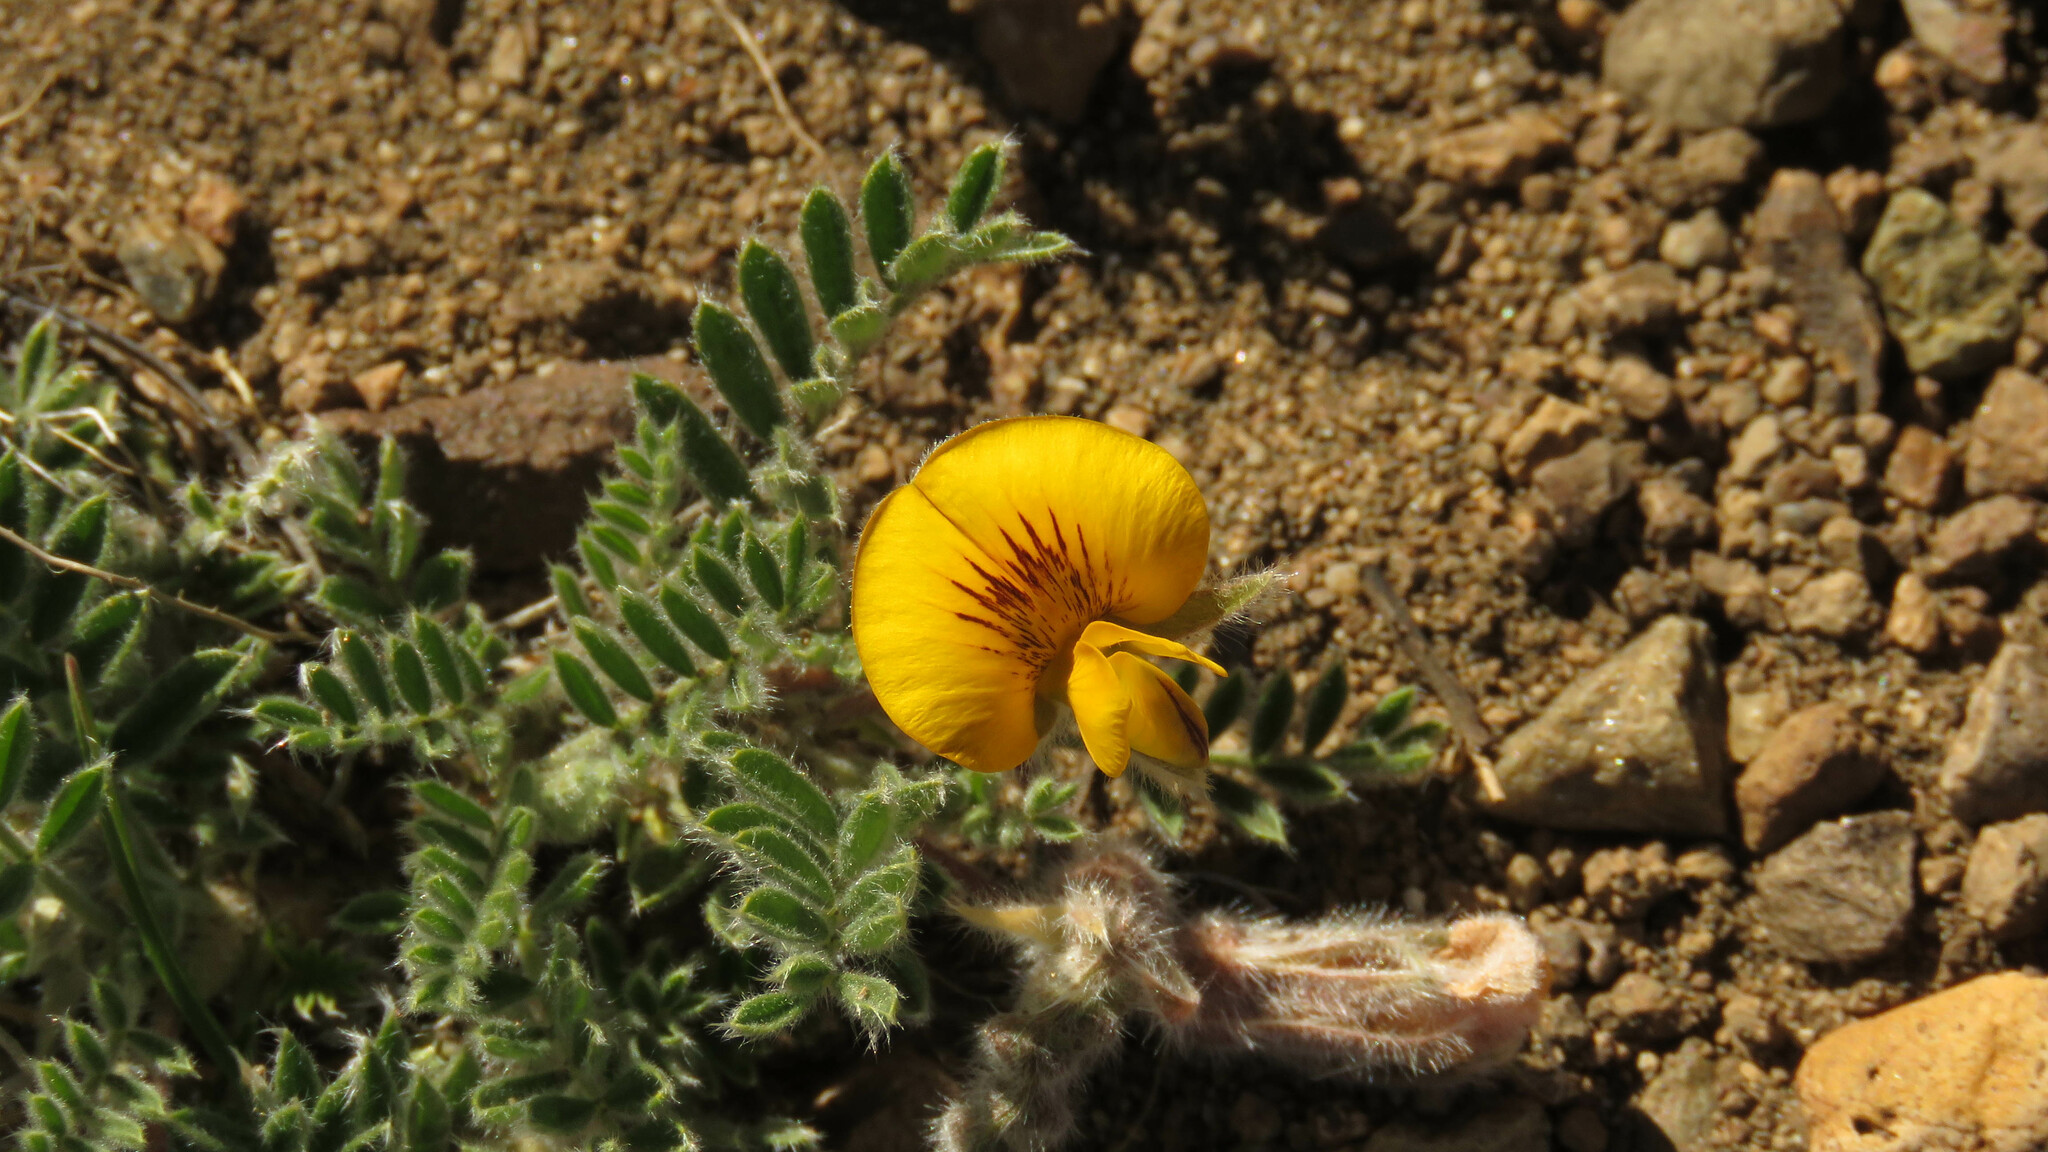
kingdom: Plantae
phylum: Tracheophyta
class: Magnoliopsida
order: Fabales
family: Fabaceae
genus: Adesmia
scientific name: Adesmia villosa
